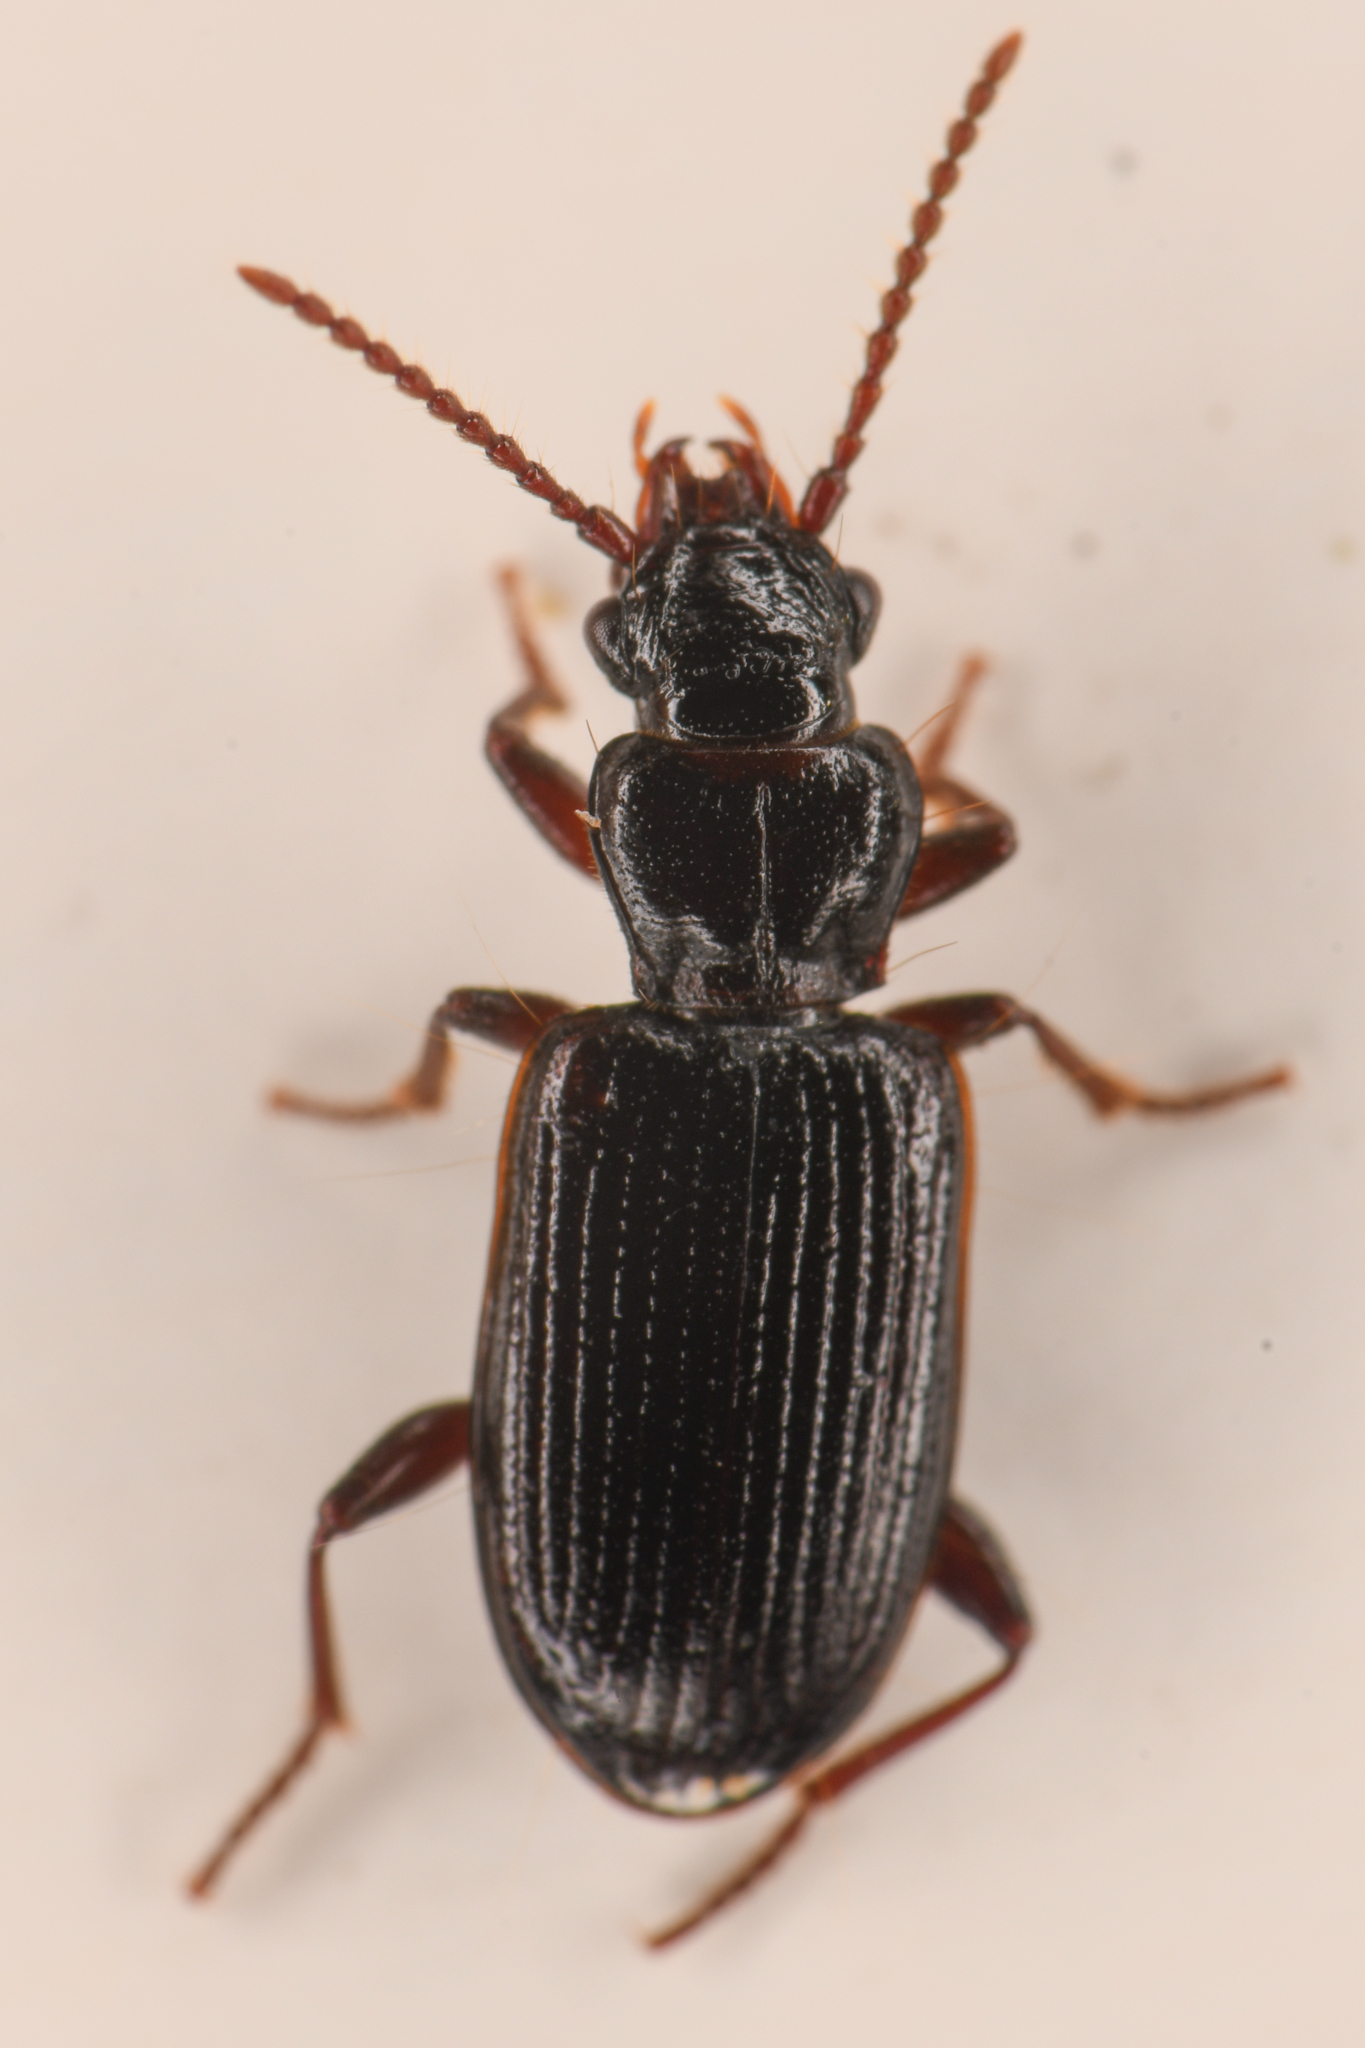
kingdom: Animalia
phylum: Arthropoda
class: Insecta
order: Coleoptera
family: Carabidae
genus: Psydrus
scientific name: Psydrus piceus
